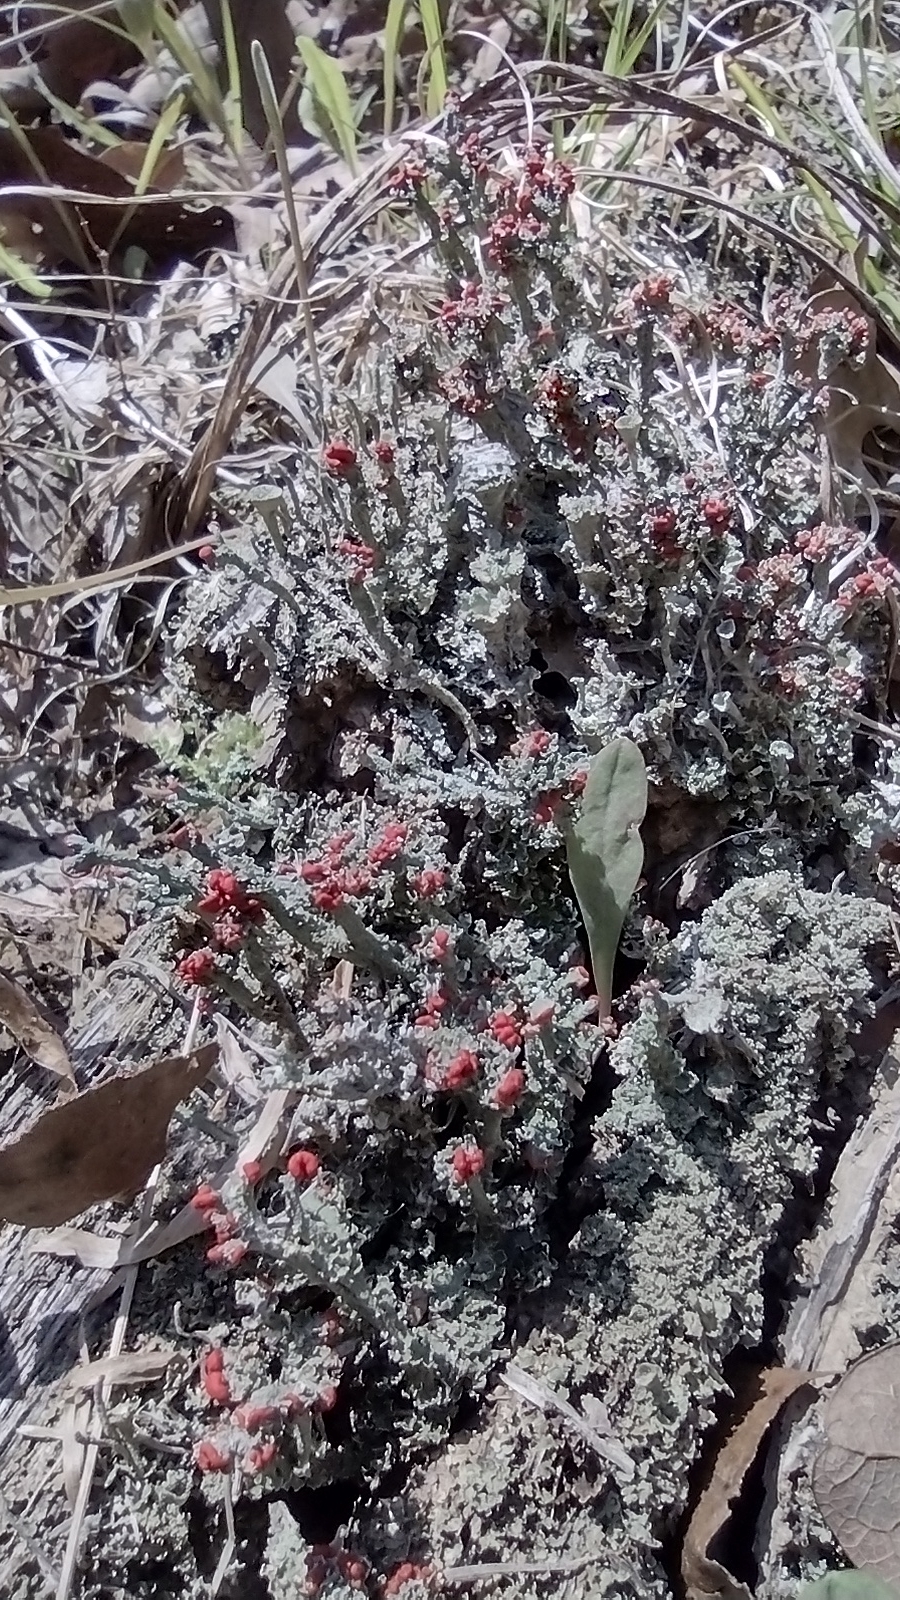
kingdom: Fungi
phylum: Ascomycota
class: Lecanoromycetes
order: Lecanorales
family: Cladoniaceae
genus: Cladonia
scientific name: Cladonia cristatella
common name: British soldier lichen
